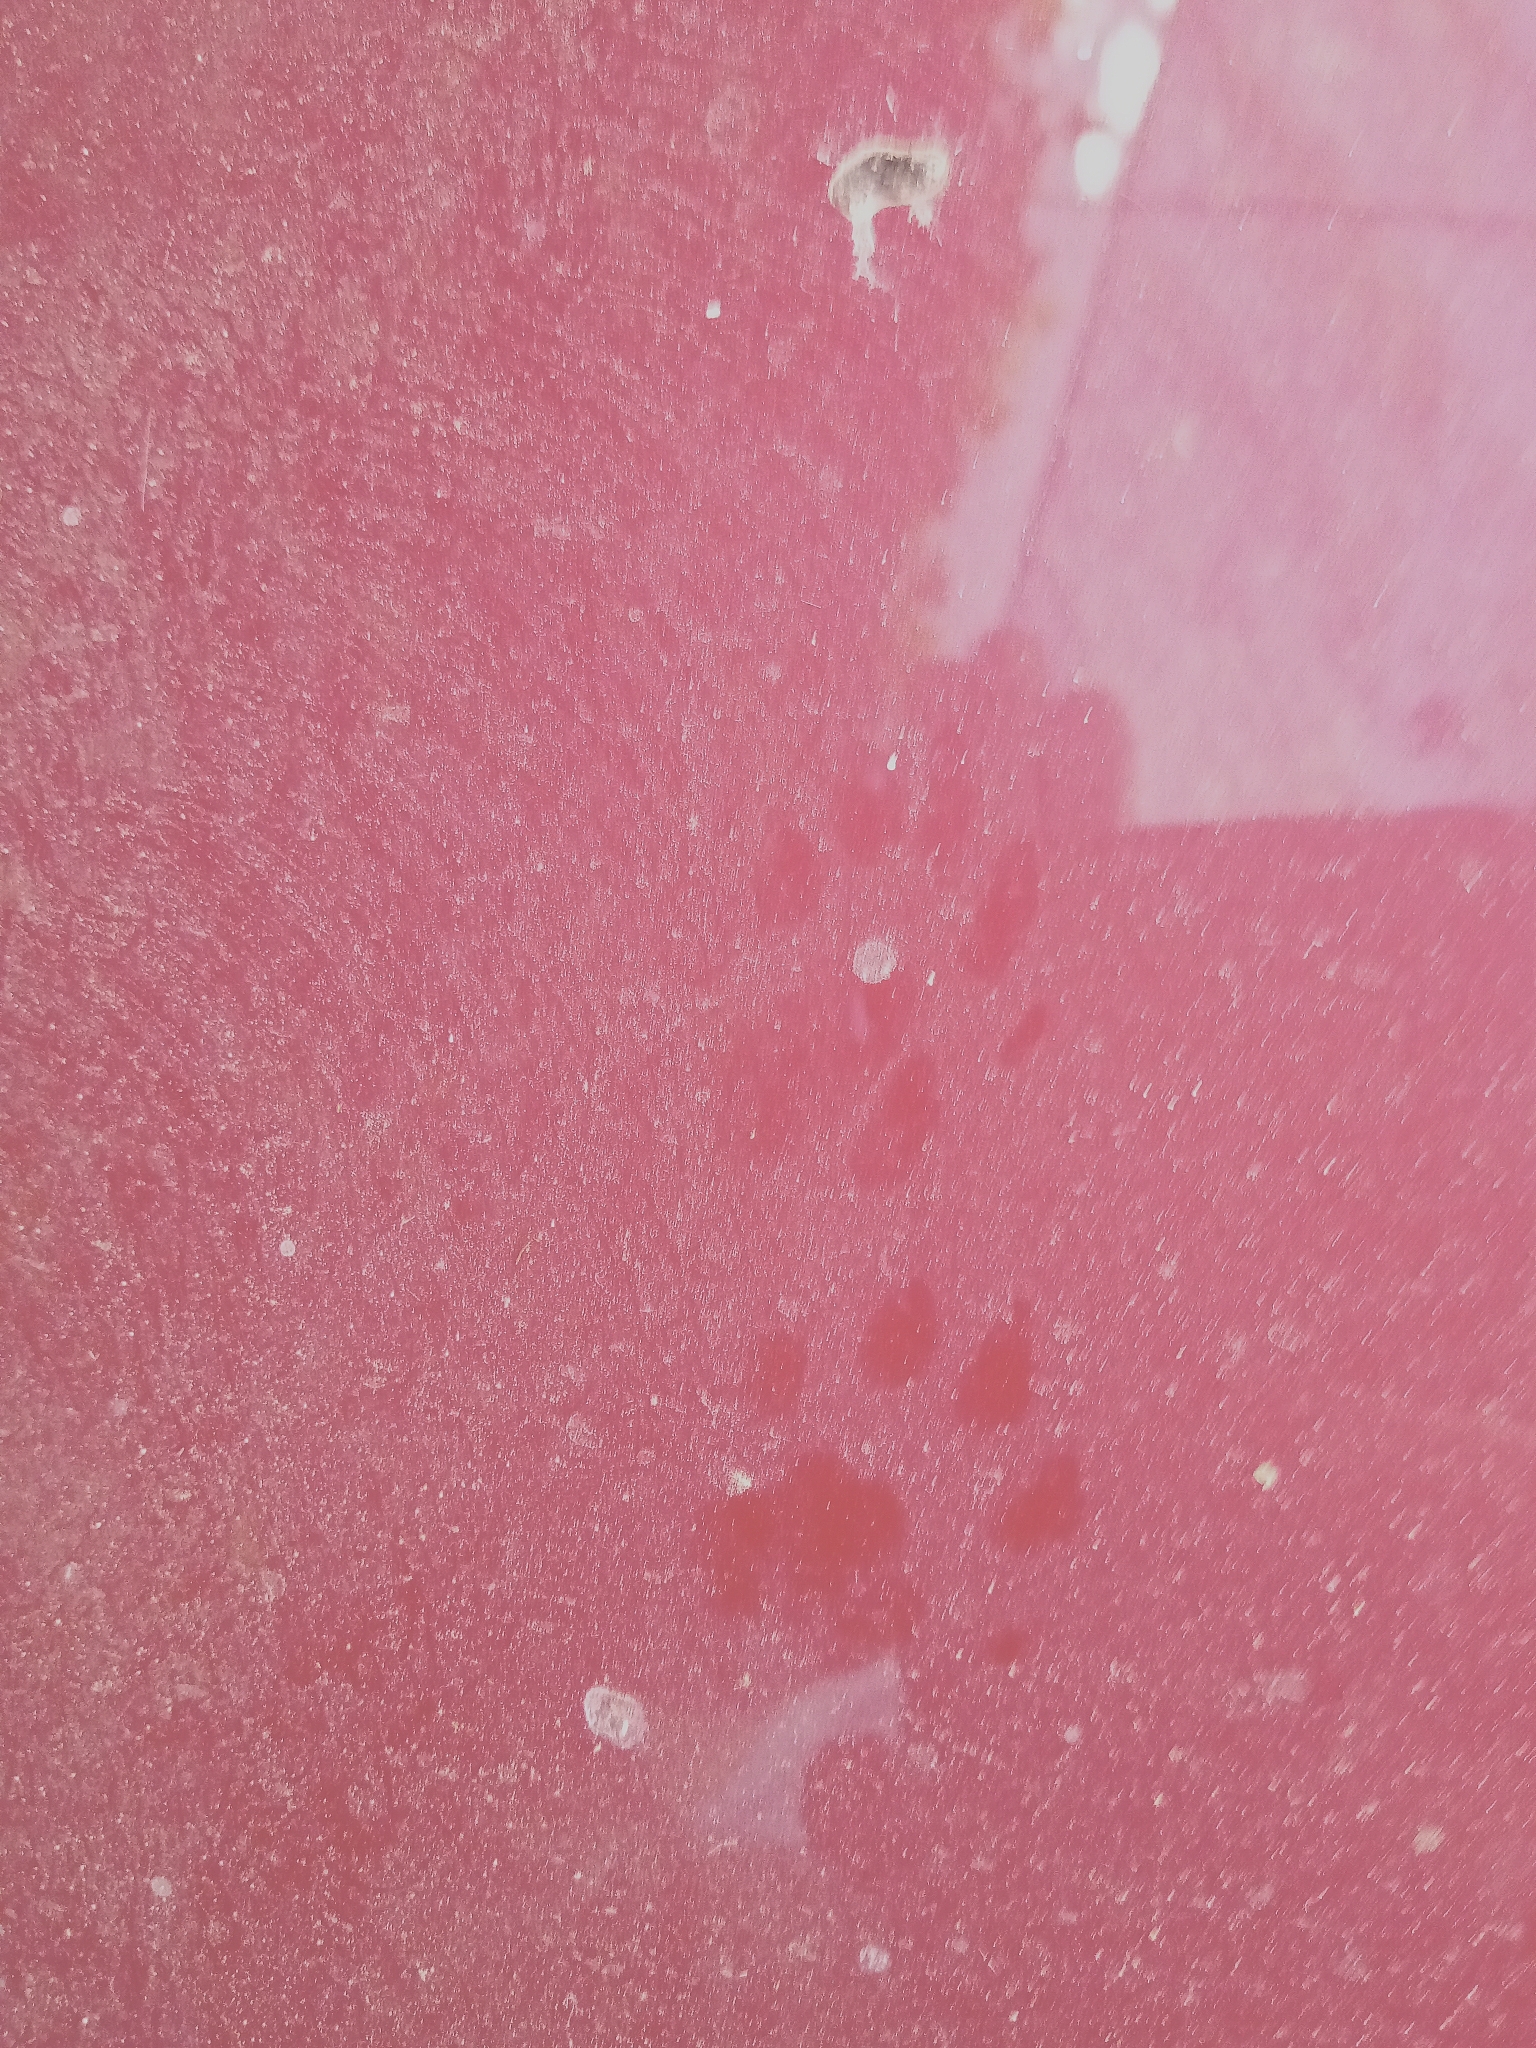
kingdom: Animalia
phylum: Chordata
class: Mammalia
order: Carnivora
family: Procyonidae
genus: Bassariscus
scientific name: Bassariscus astutus
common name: Ringtail
